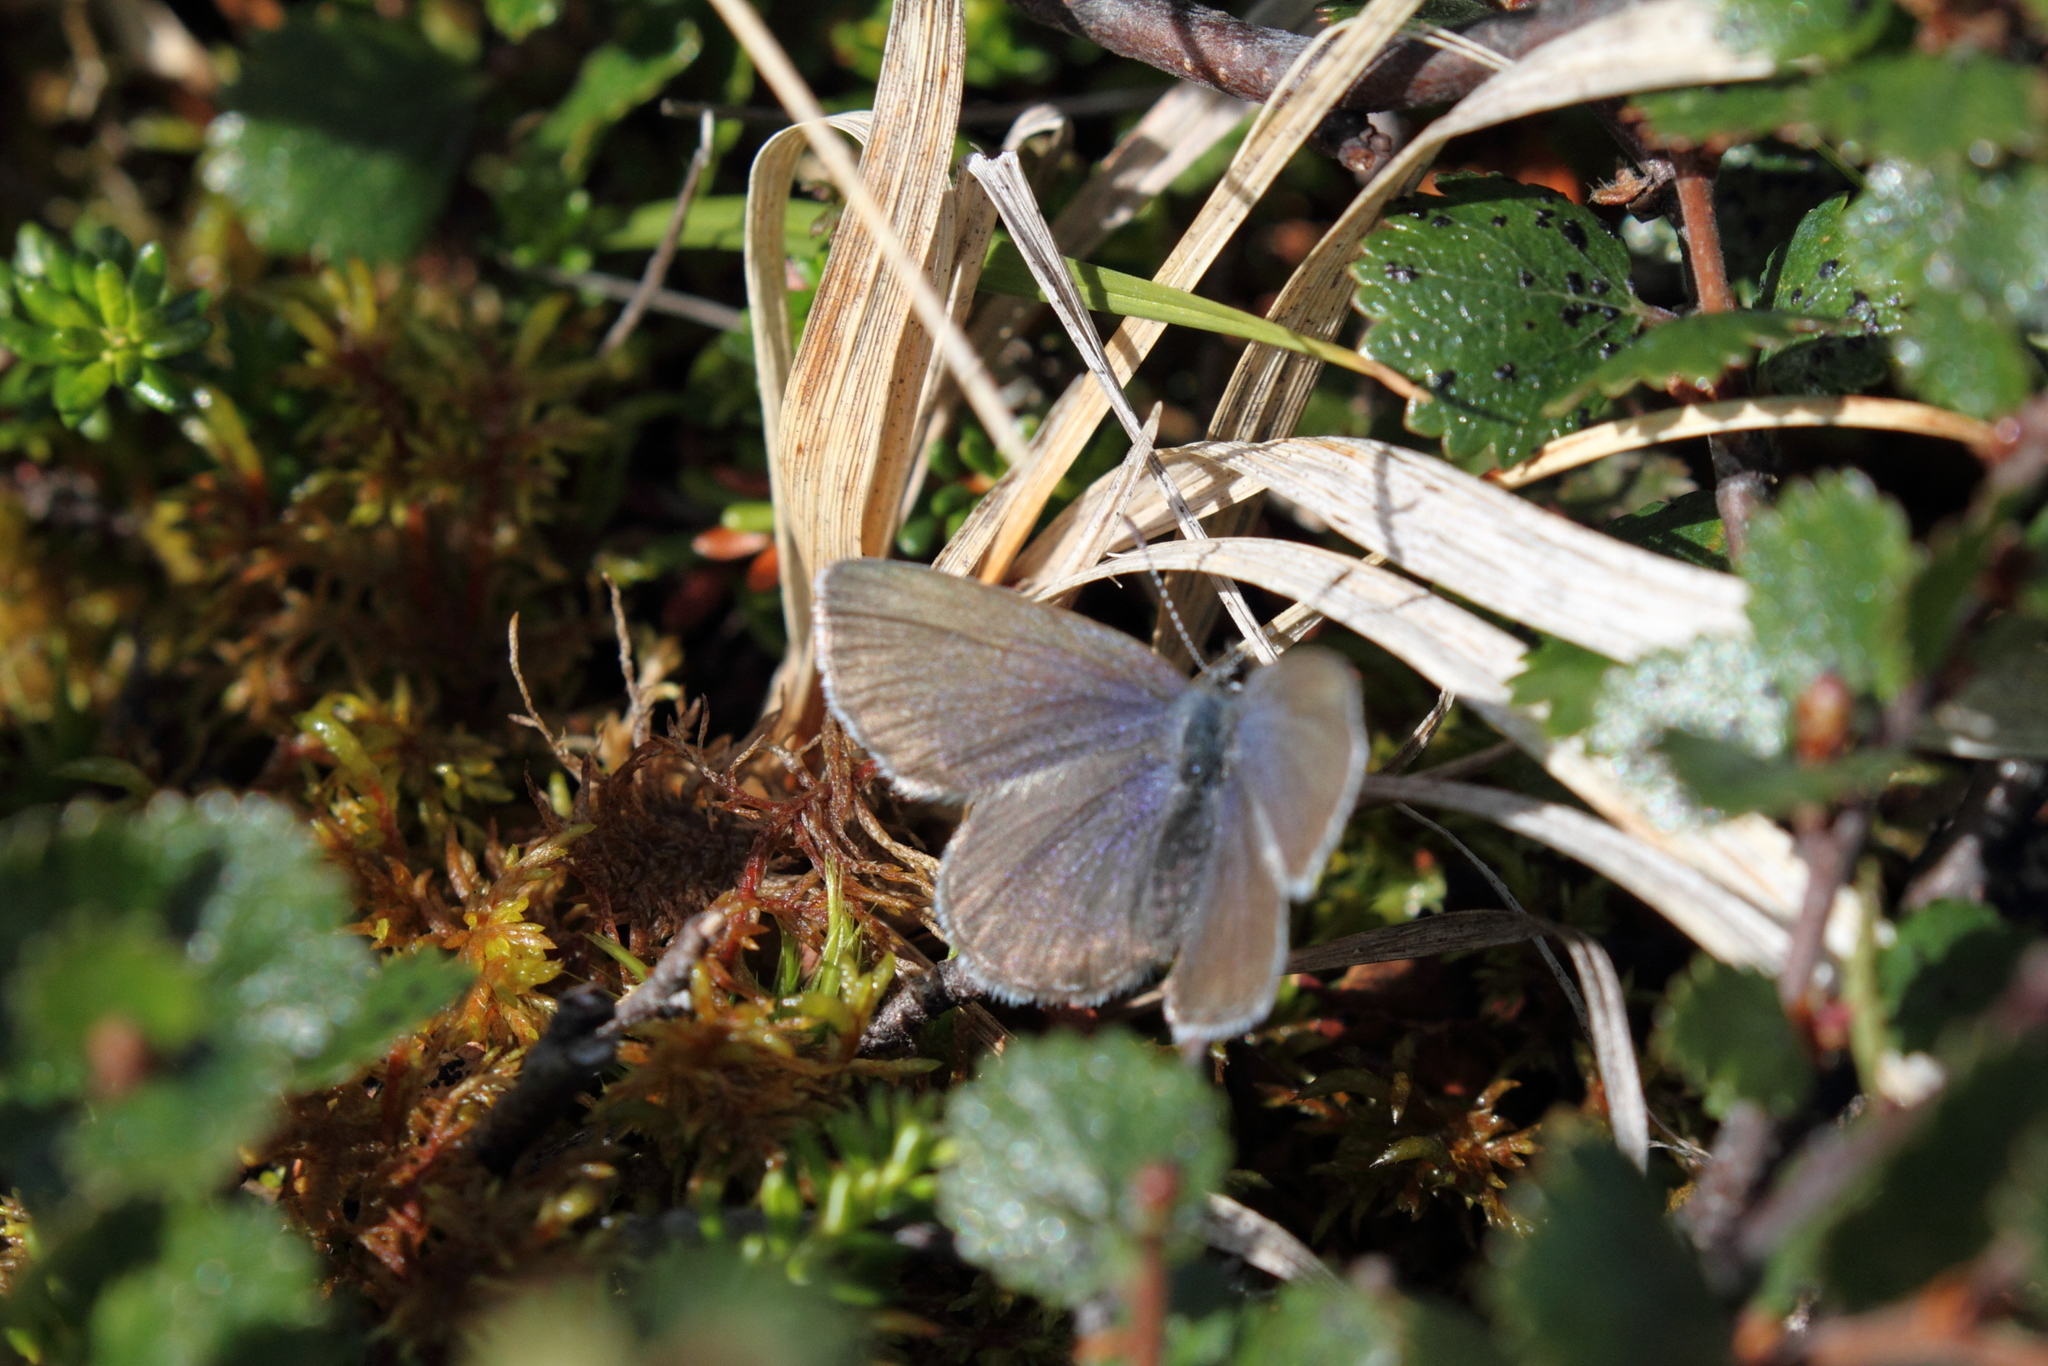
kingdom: Animalia
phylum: Arthropoda
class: Insecta
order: Lepidoptera
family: Lycaenidae
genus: Vacciniina
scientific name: Vacciniina optilete
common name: Cranberry blue
